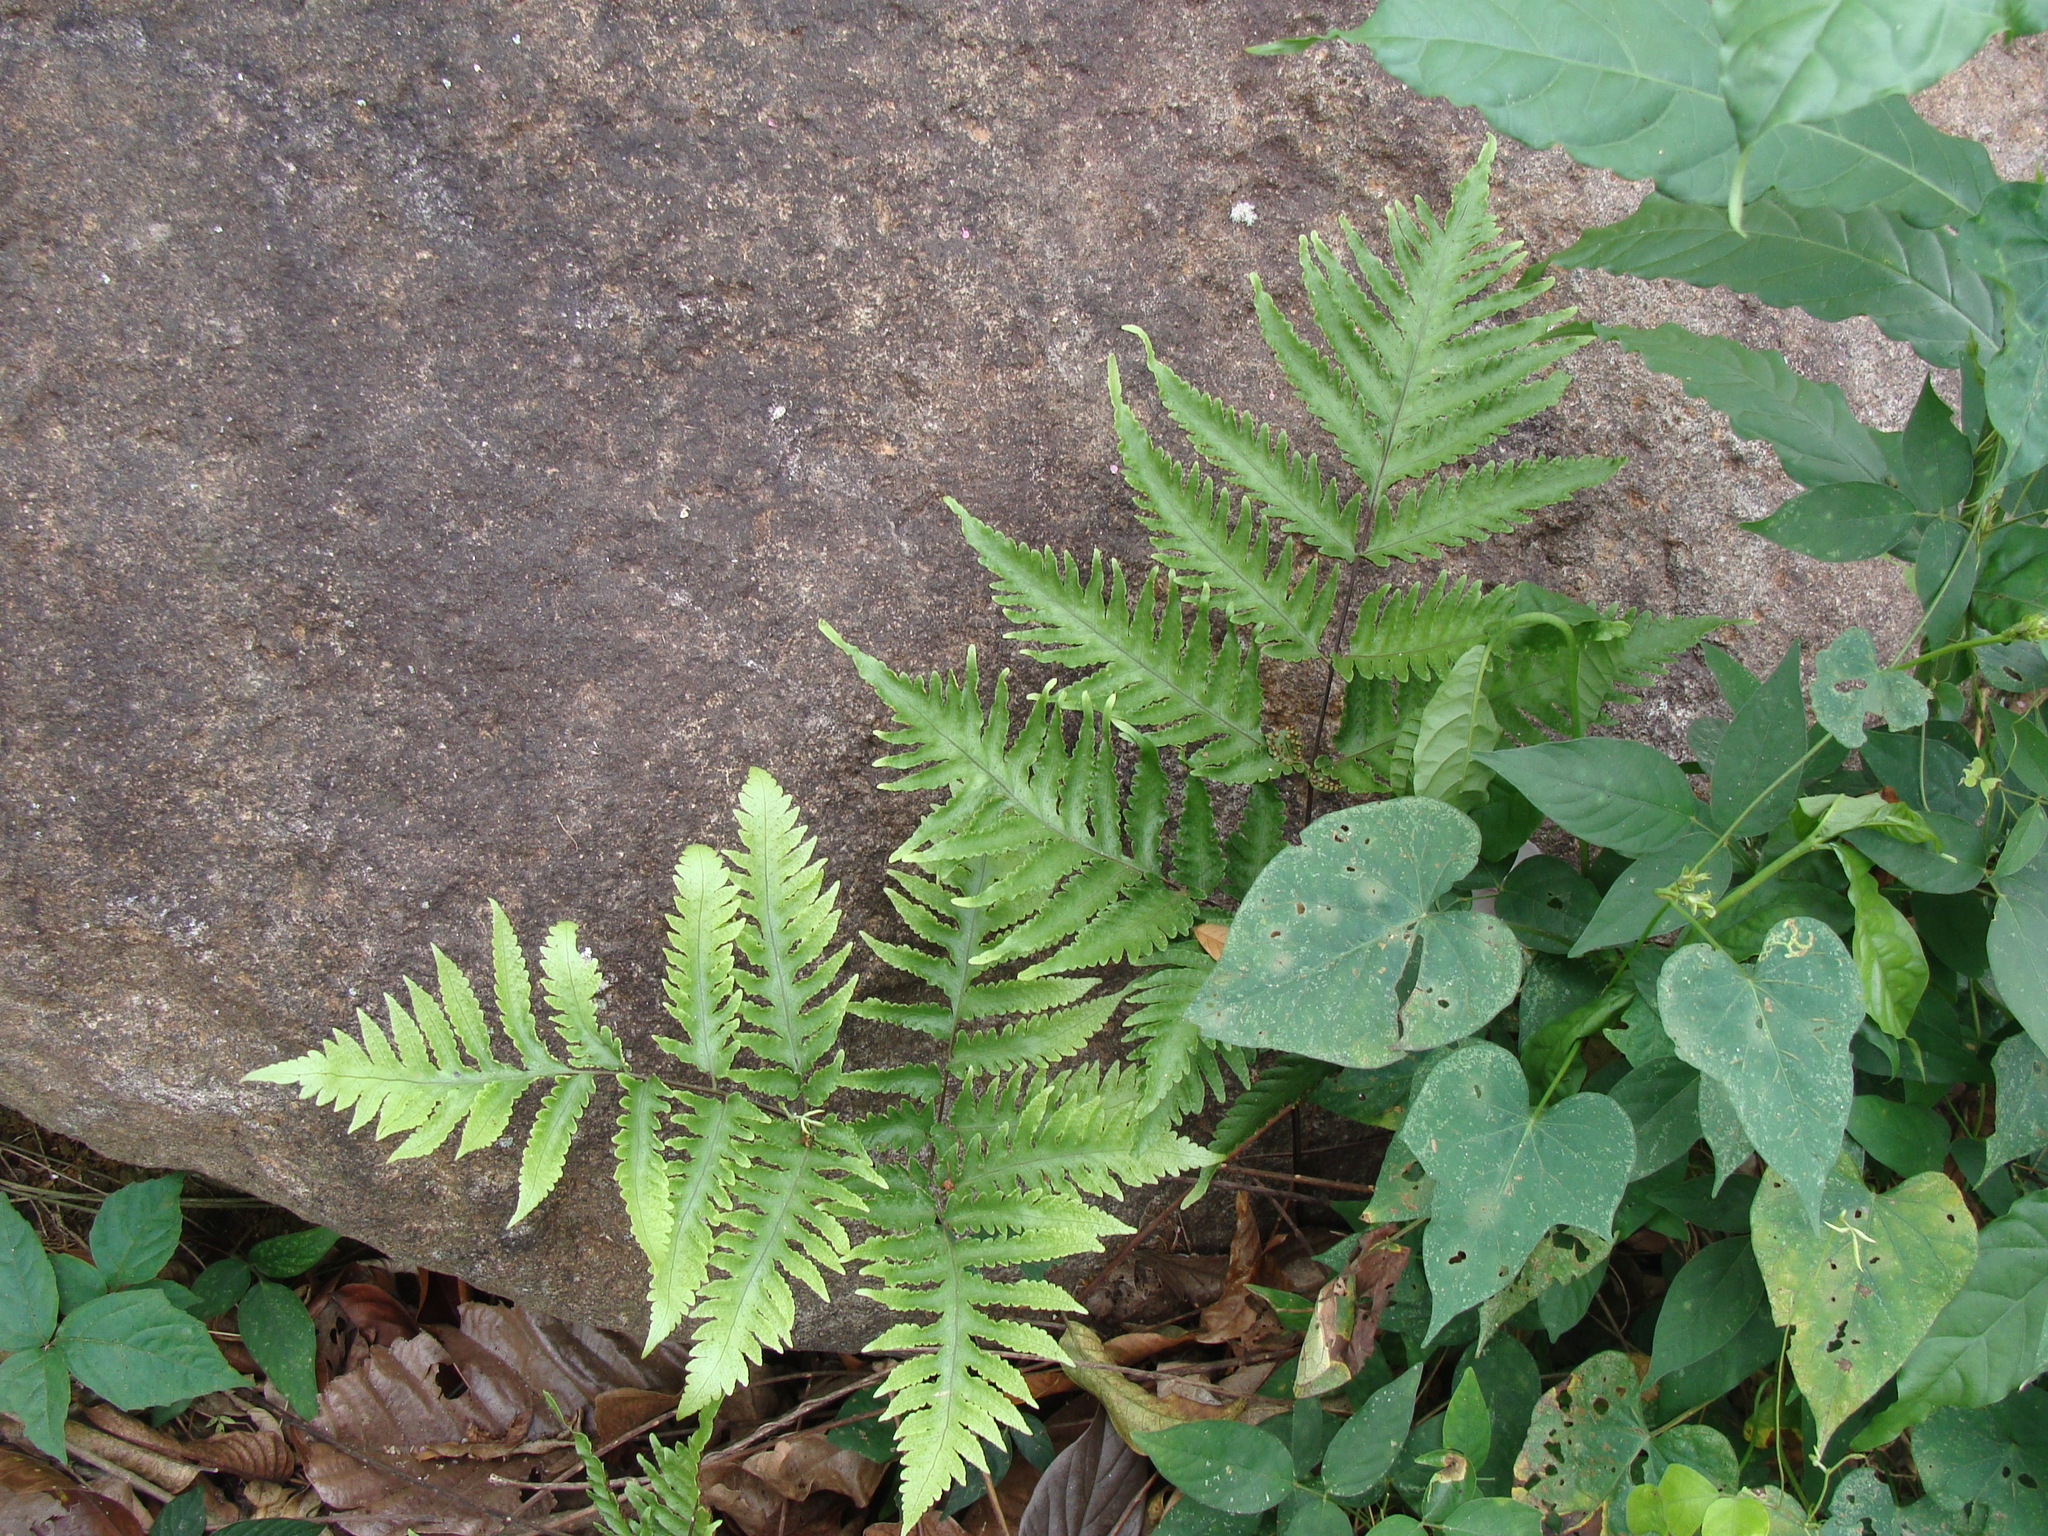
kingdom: Plantae
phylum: Tracheophyta
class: Polypodiopsida
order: Polypodiales
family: Tectariaceae
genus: Tectaria
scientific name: Tectaria mexicana
